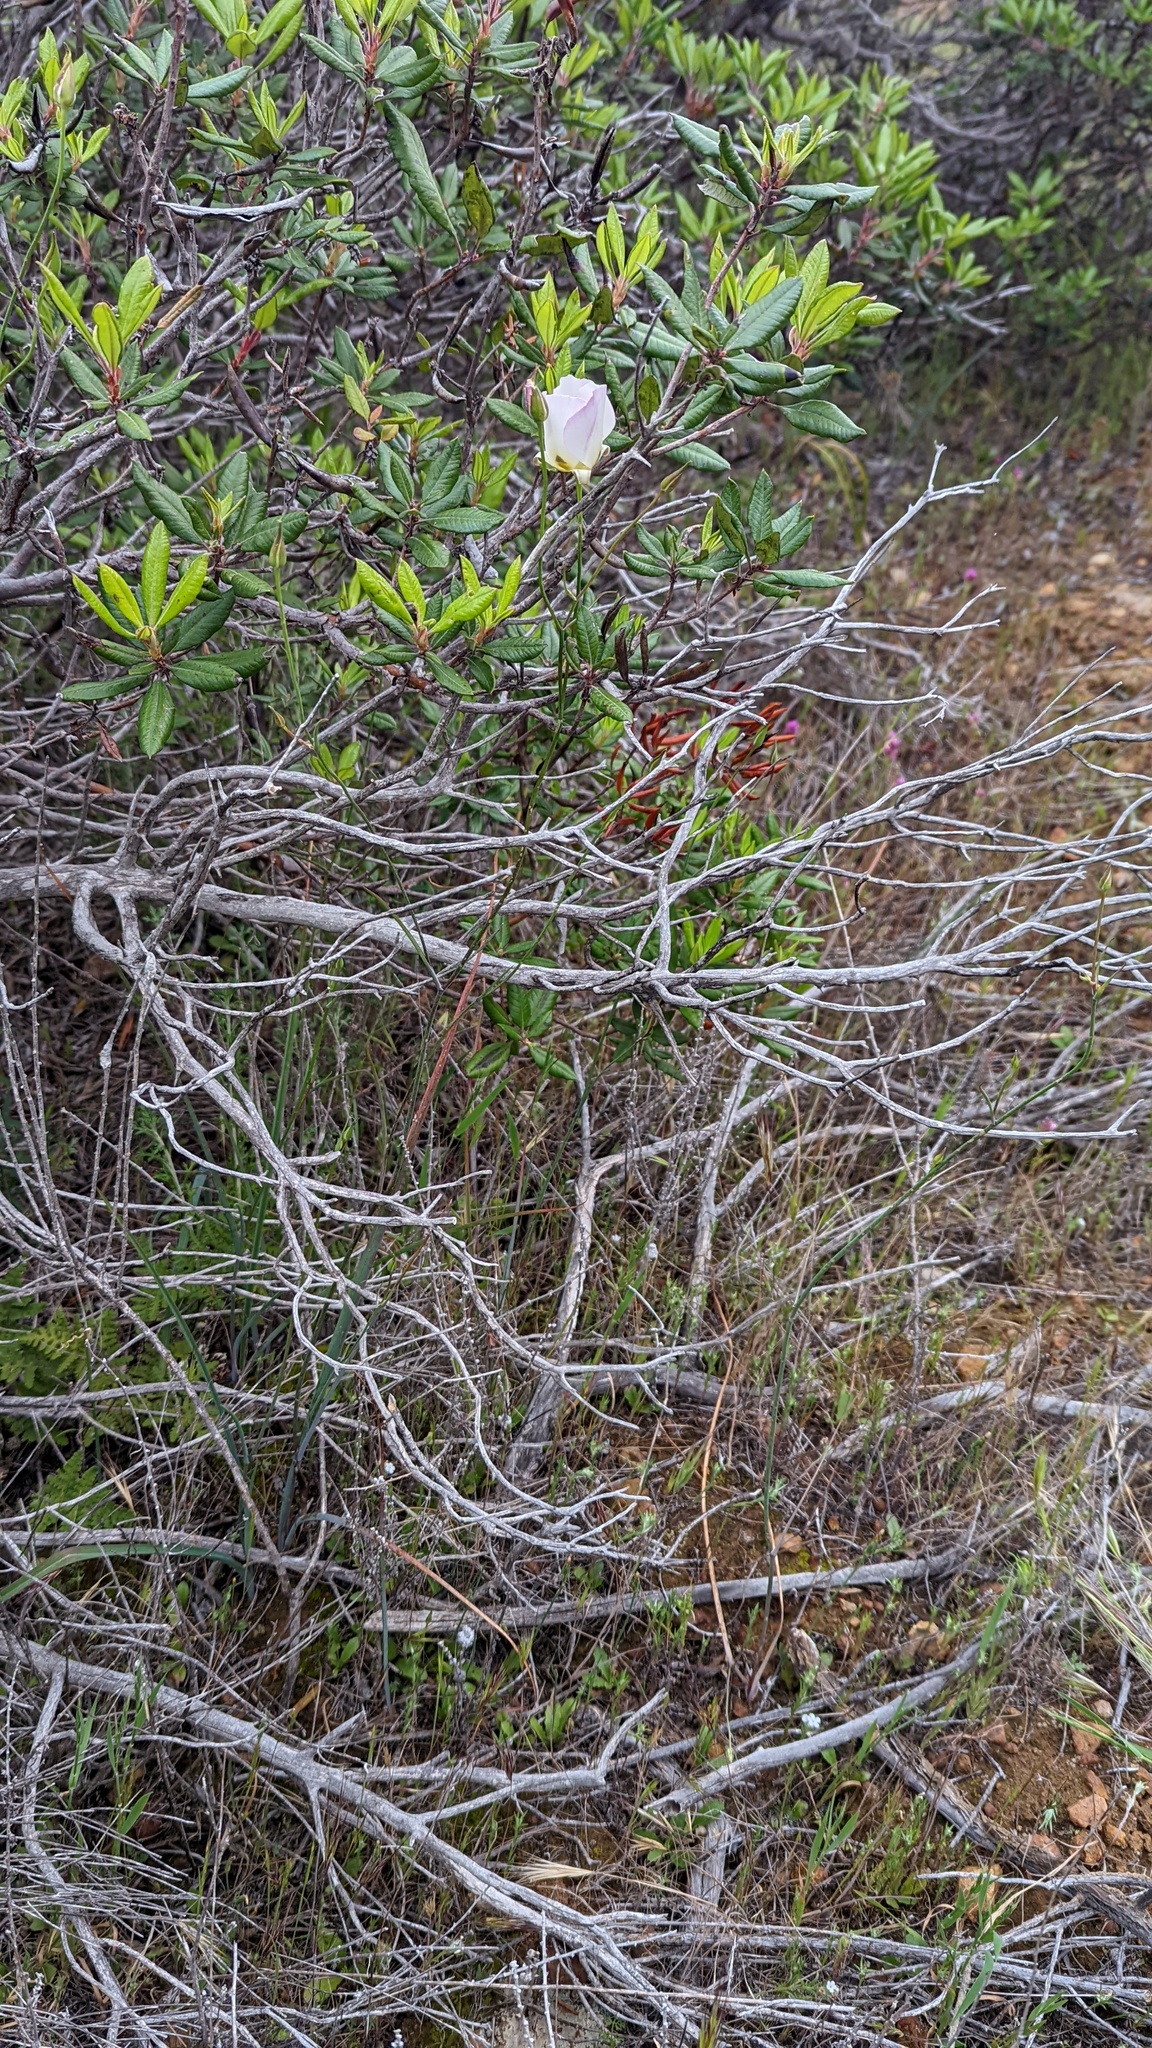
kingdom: Plantae
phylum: Tracheophyta
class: Liliopsida
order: Liliales
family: Liliaceae
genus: Calochortus
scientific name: Calochortus dunnii
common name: Dunn's mariposa-lily
